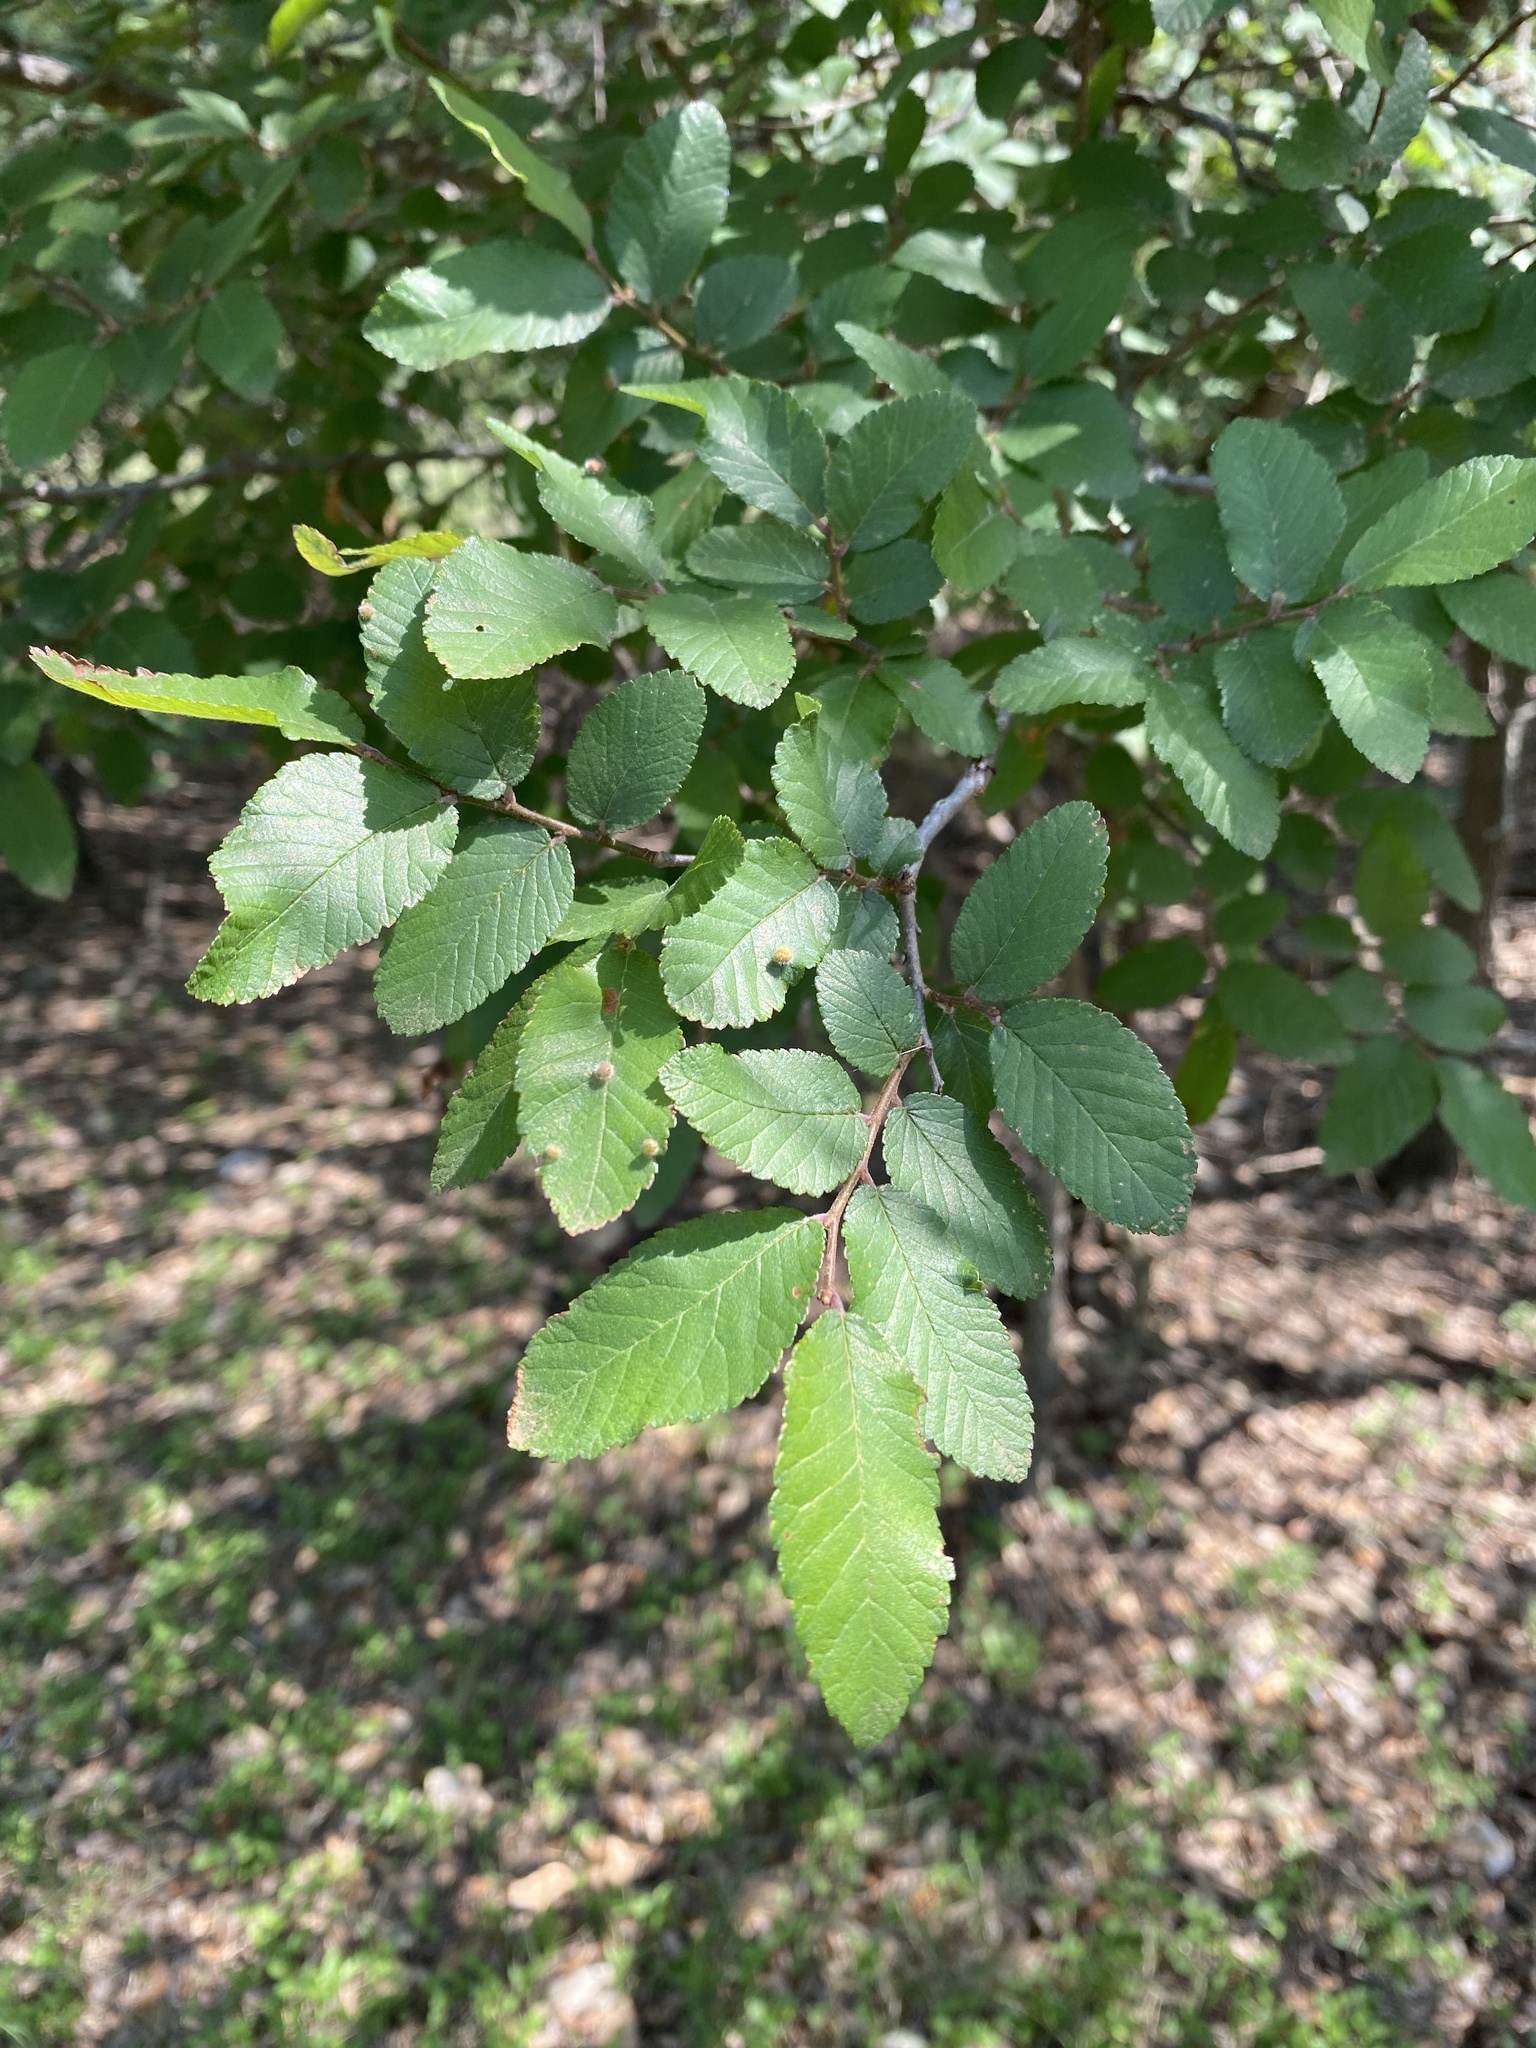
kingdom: Plantae
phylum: Tracheophyta
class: Magnoliopsida
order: Rosales
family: Ulmaceae
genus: Ulmus
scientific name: Ulmus crassifolia
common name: Basket elm
